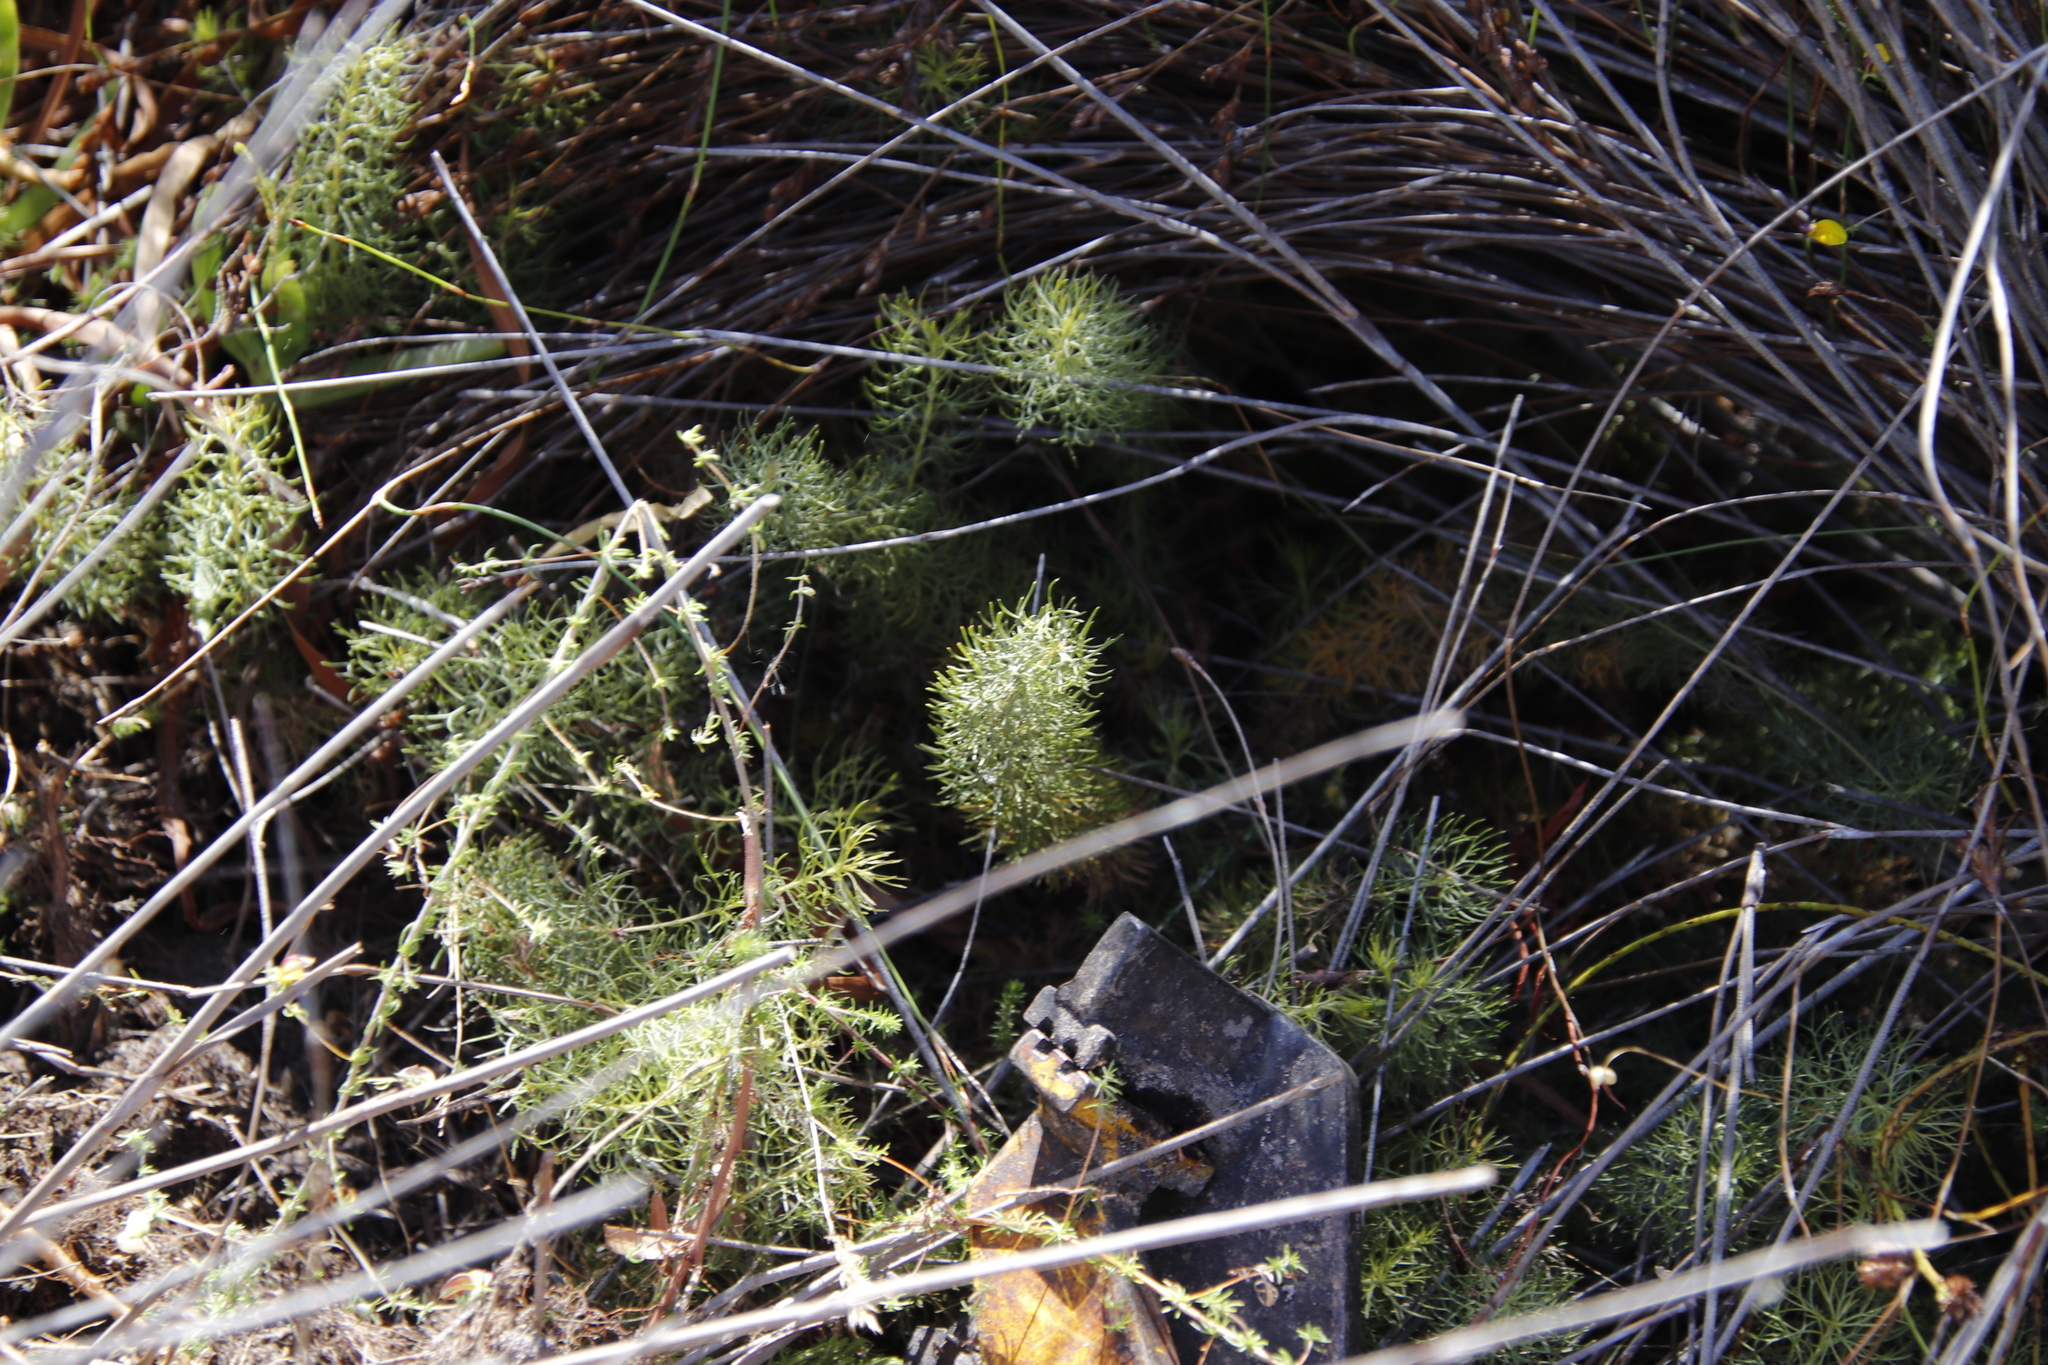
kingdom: Plantae
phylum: Tracheophyta
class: Magnoliopsida
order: Proteales
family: Proteaceae
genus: Serruria
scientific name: Serruria cyanoides
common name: Wynberg spiderhead
